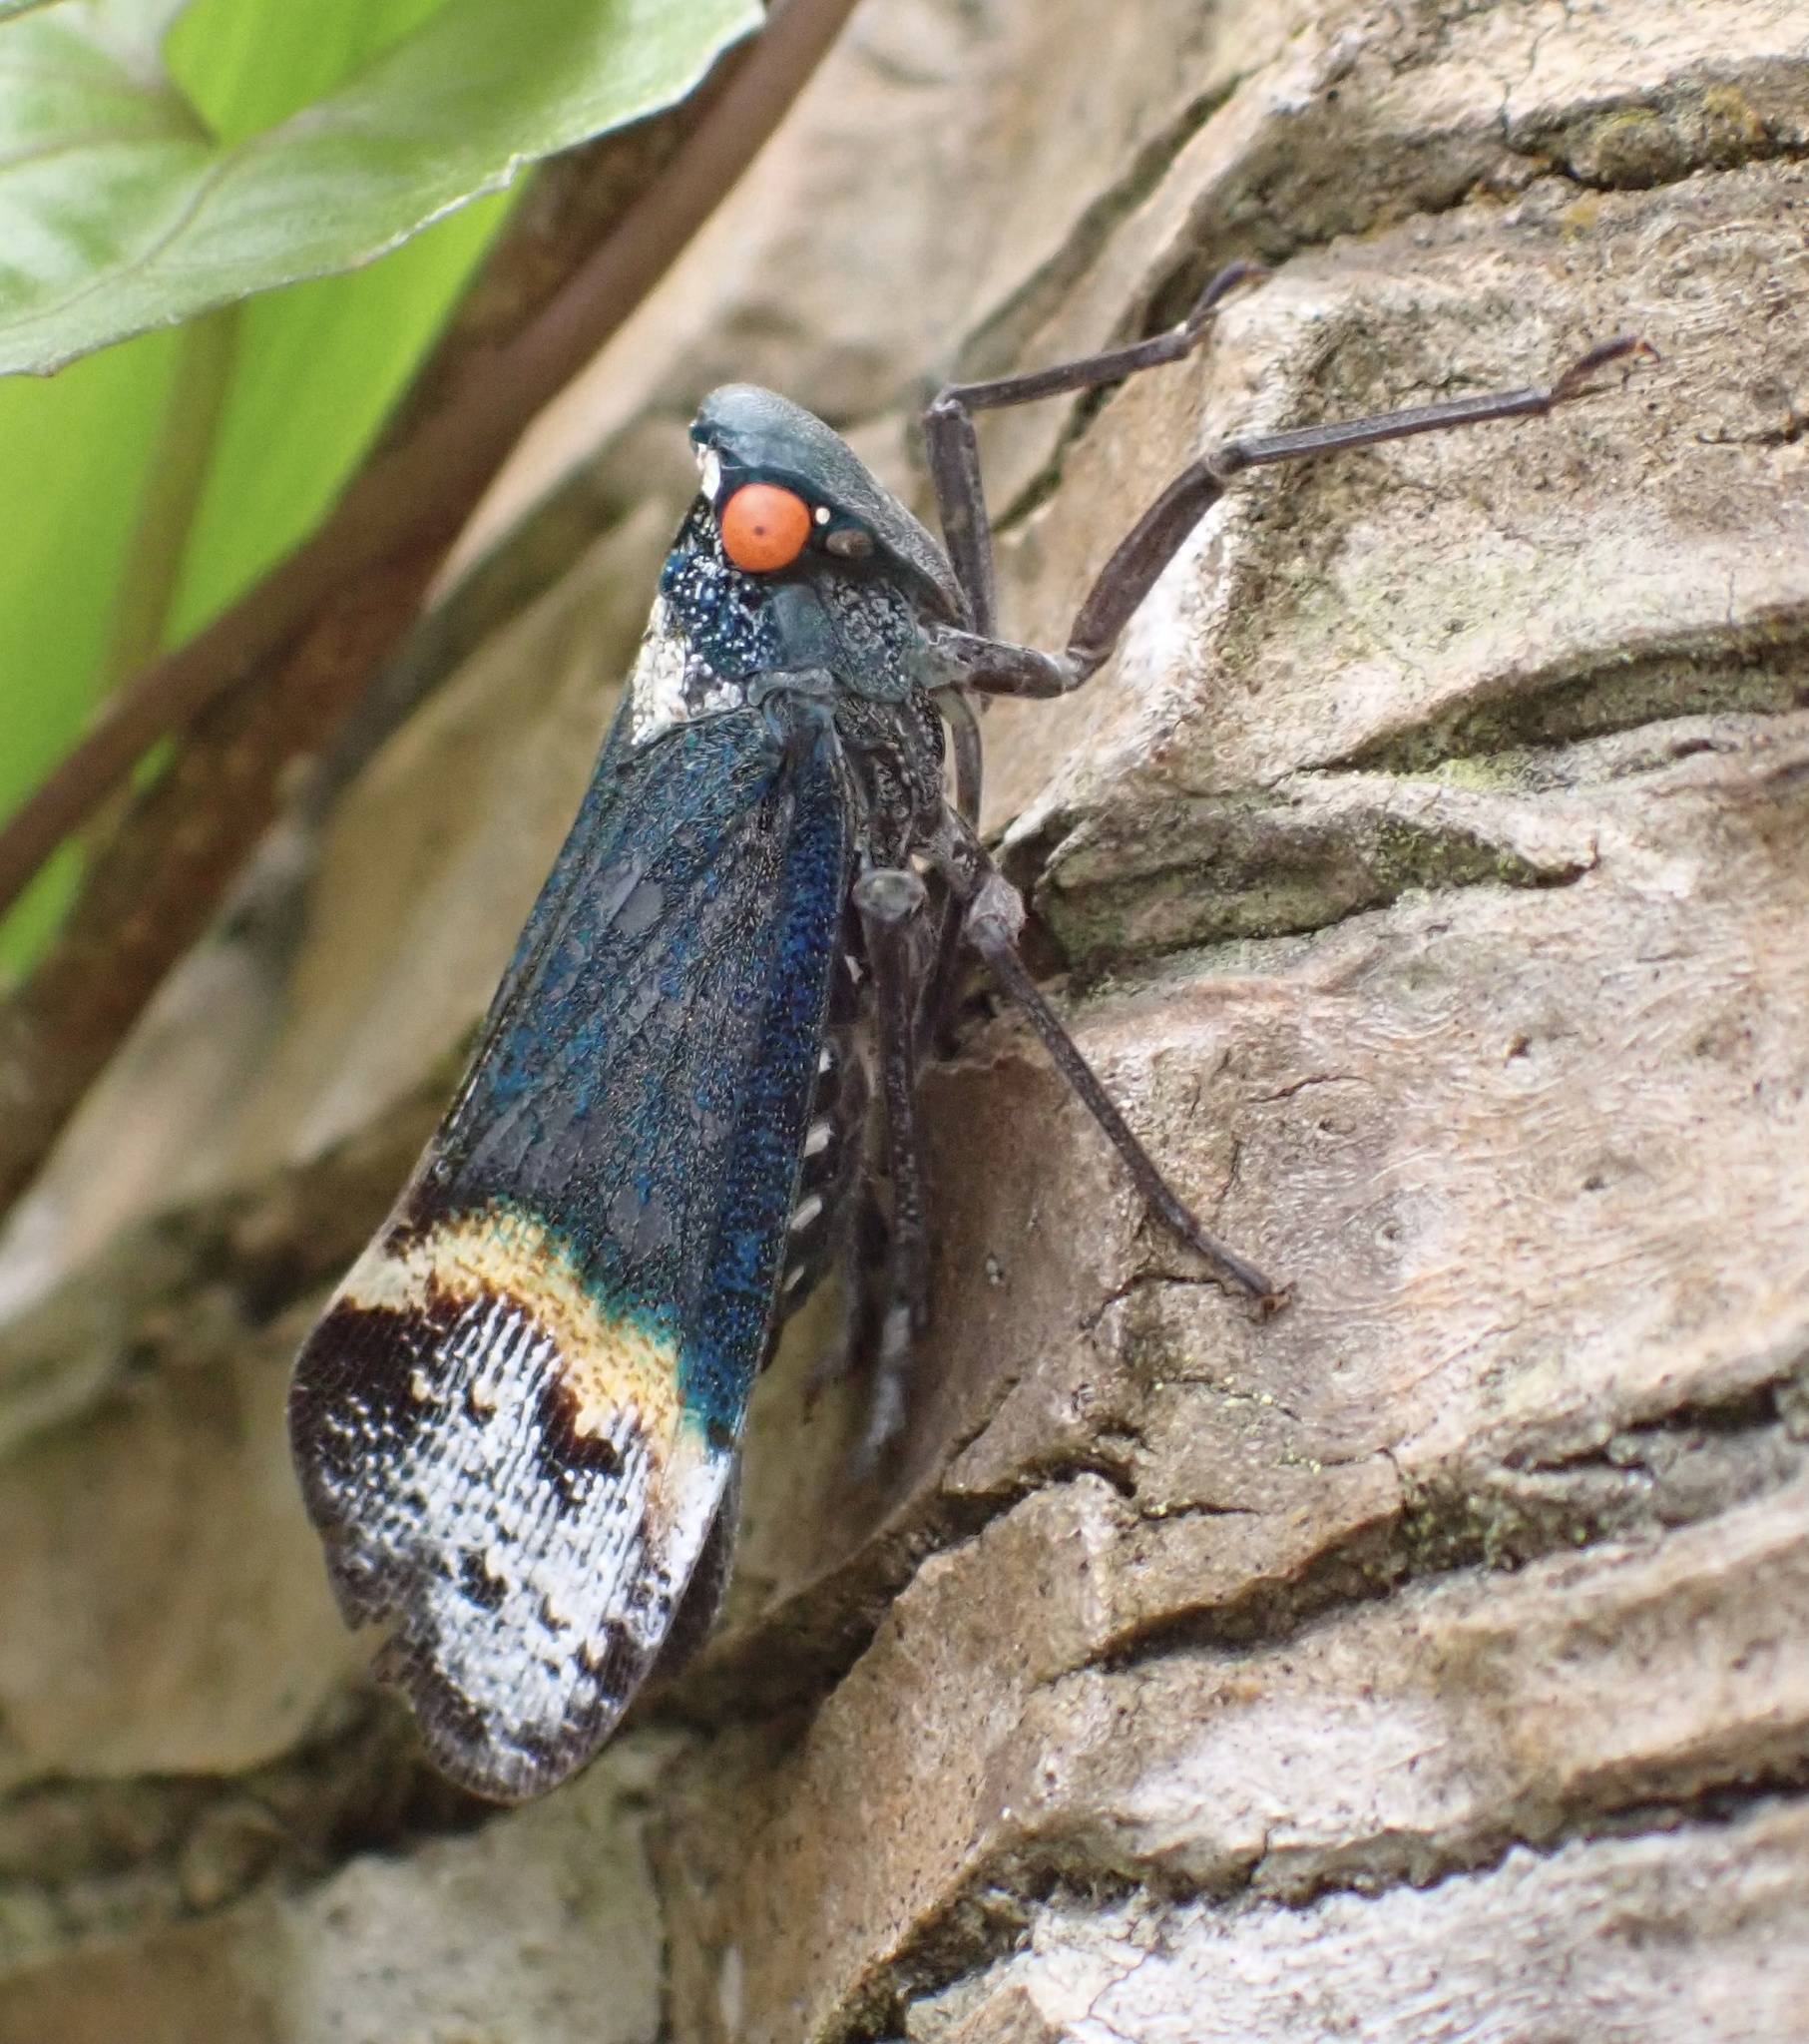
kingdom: Animalia
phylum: Arthropoda
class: Insecta
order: Hemiptera
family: Fulgoridae
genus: Penthicodes
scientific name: Penthicodes farinosa
